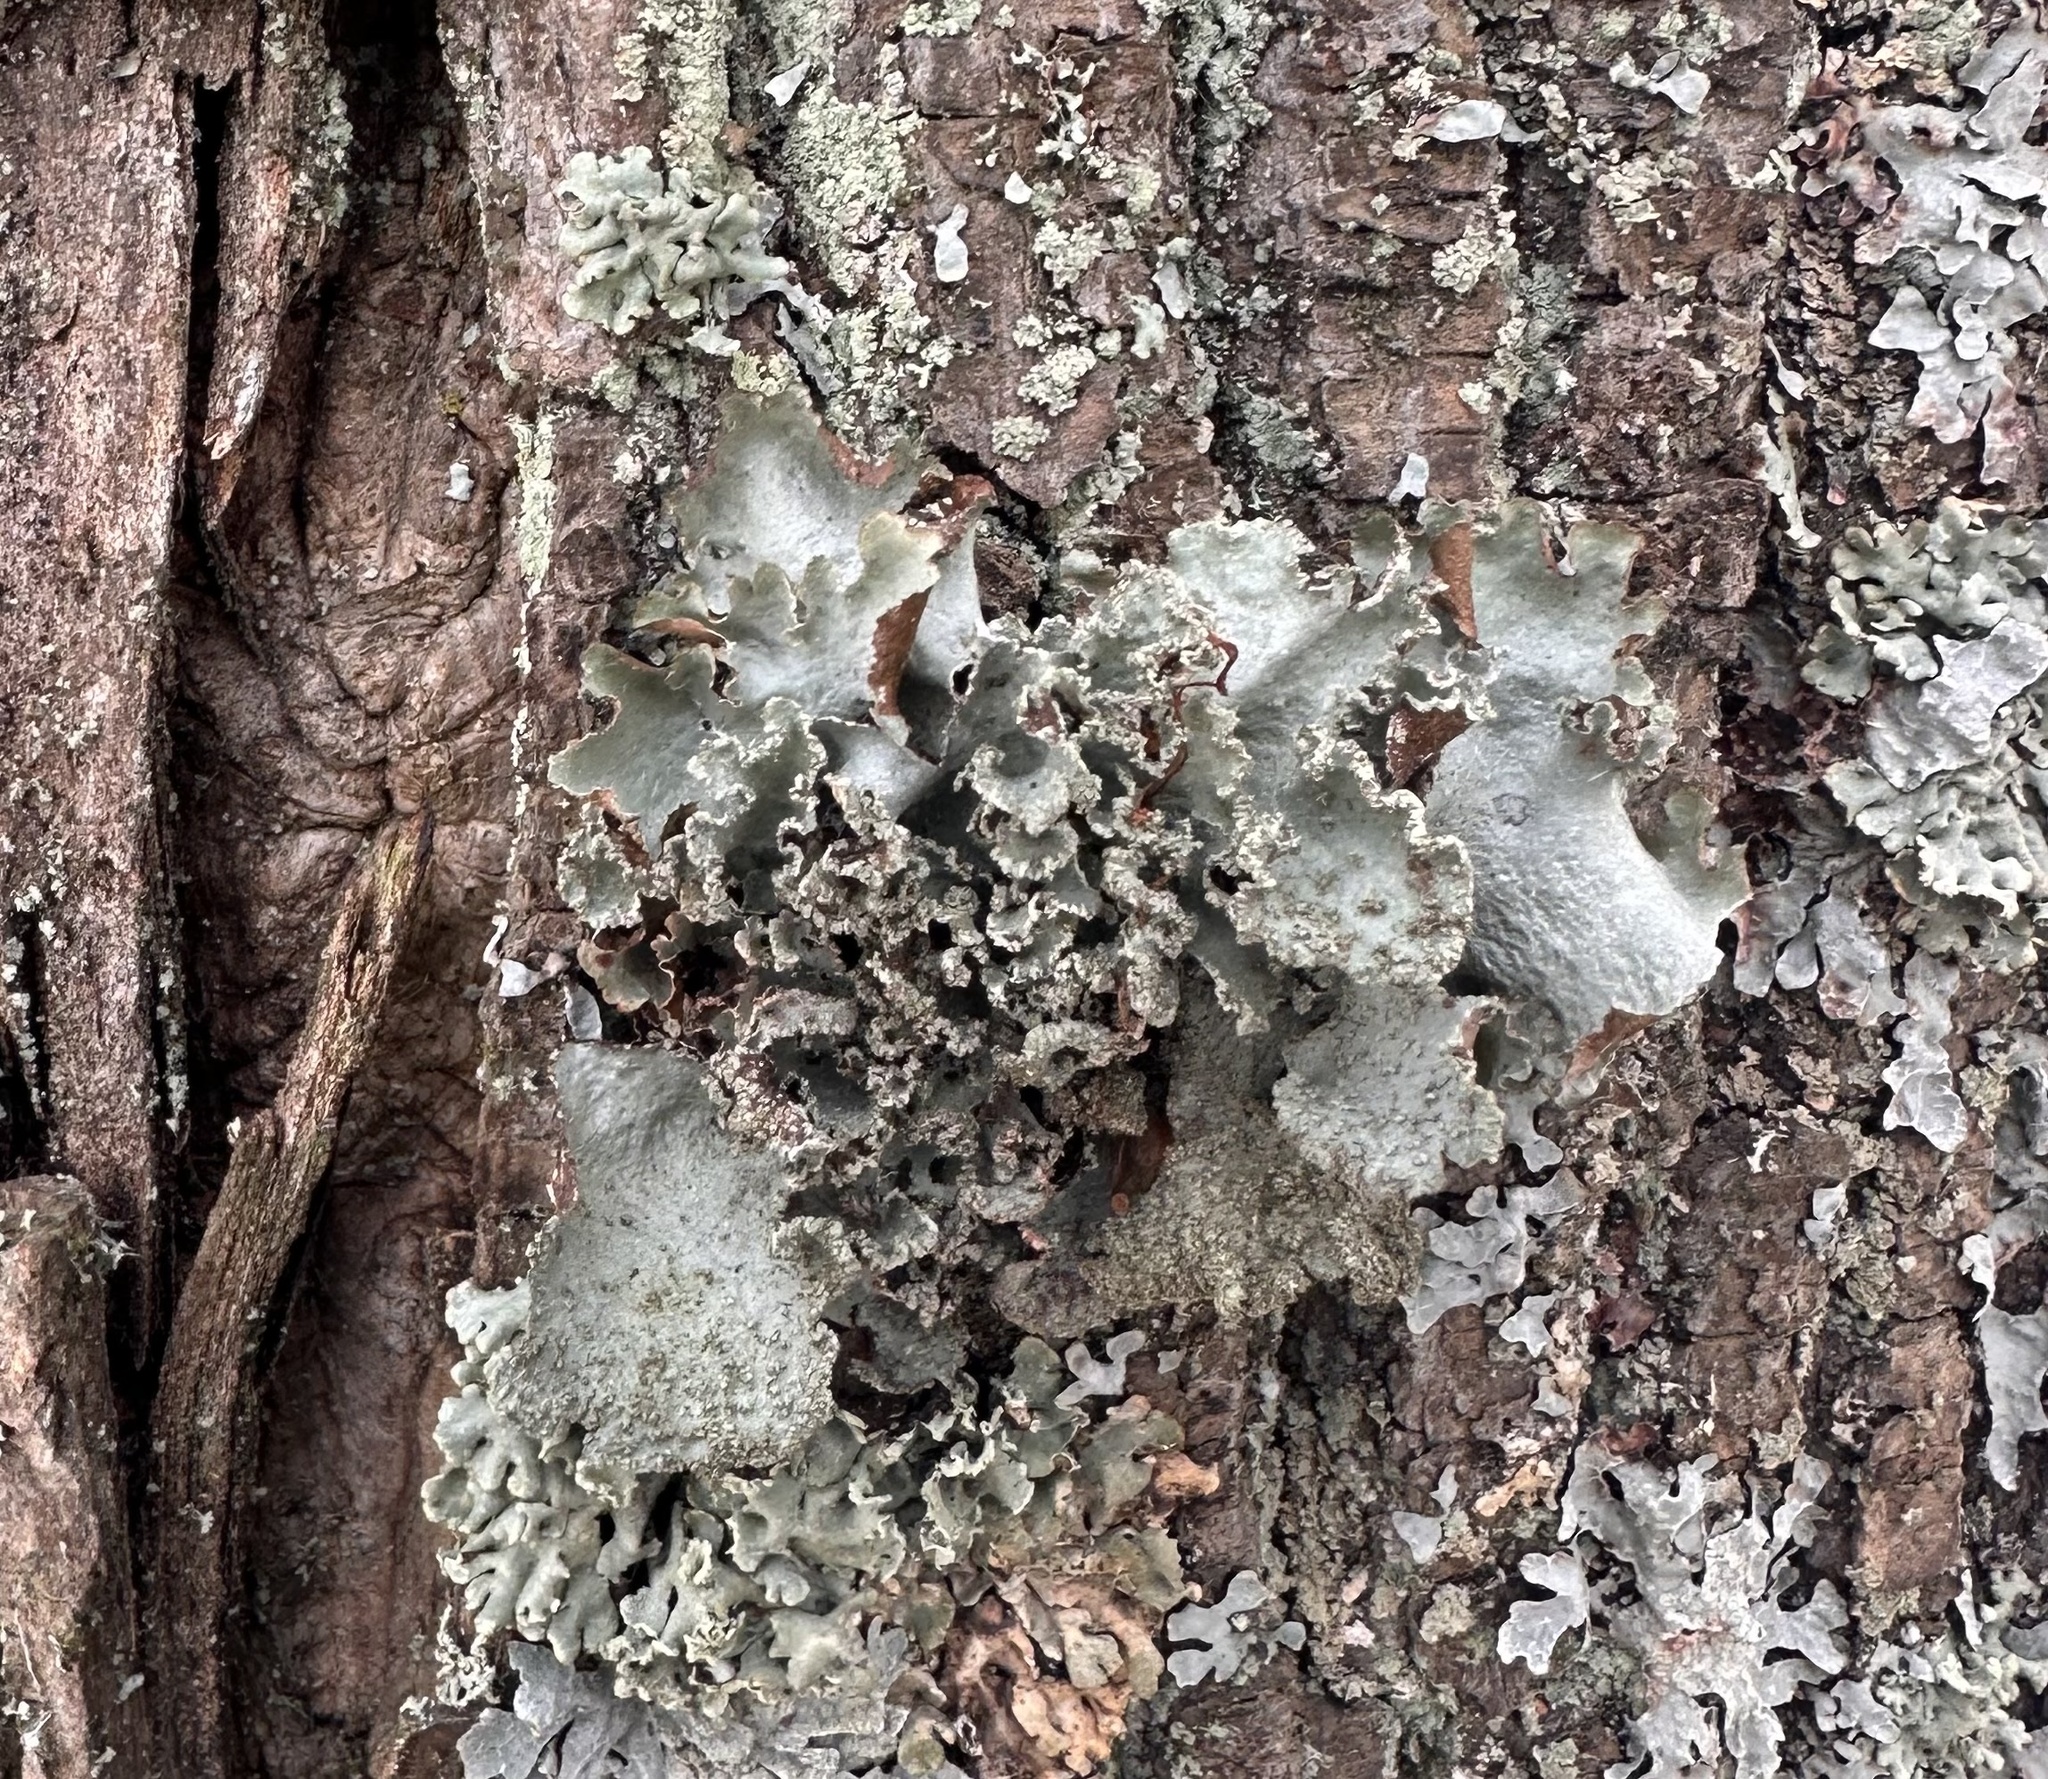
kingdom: Fungi
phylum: Ascomycota
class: Lecanoromycetes
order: Lecanorales
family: Parmeliaceae
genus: Platismatia
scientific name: Platismatia glauca
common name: Varied rag lichen
